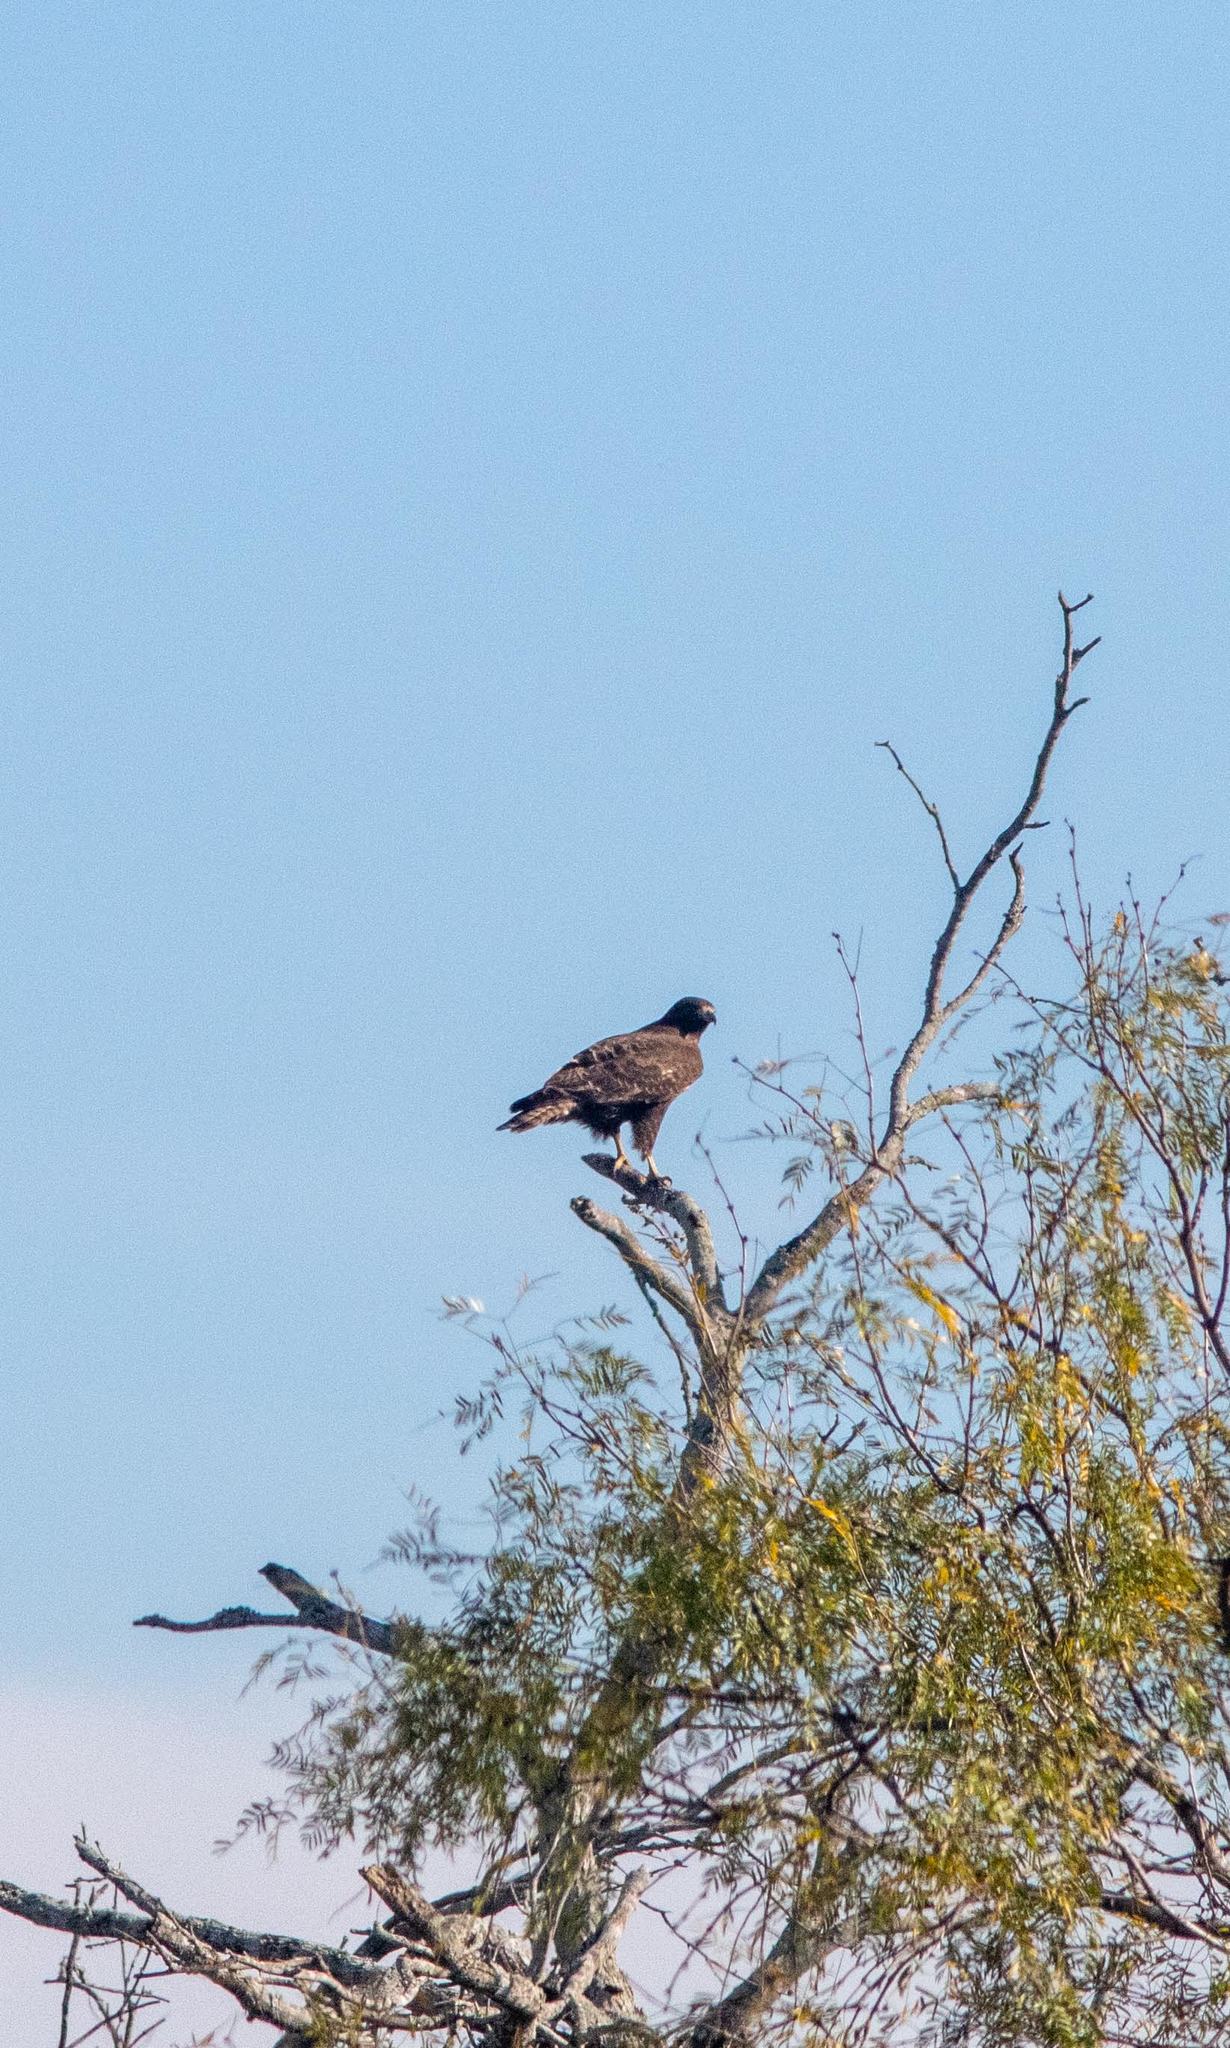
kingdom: Animalia
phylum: Chordata
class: Aves
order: Accipitriformes
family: Accipitridae
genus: Parabuteo
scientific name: Parabuteo unicinctus
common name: Harris's hawk
